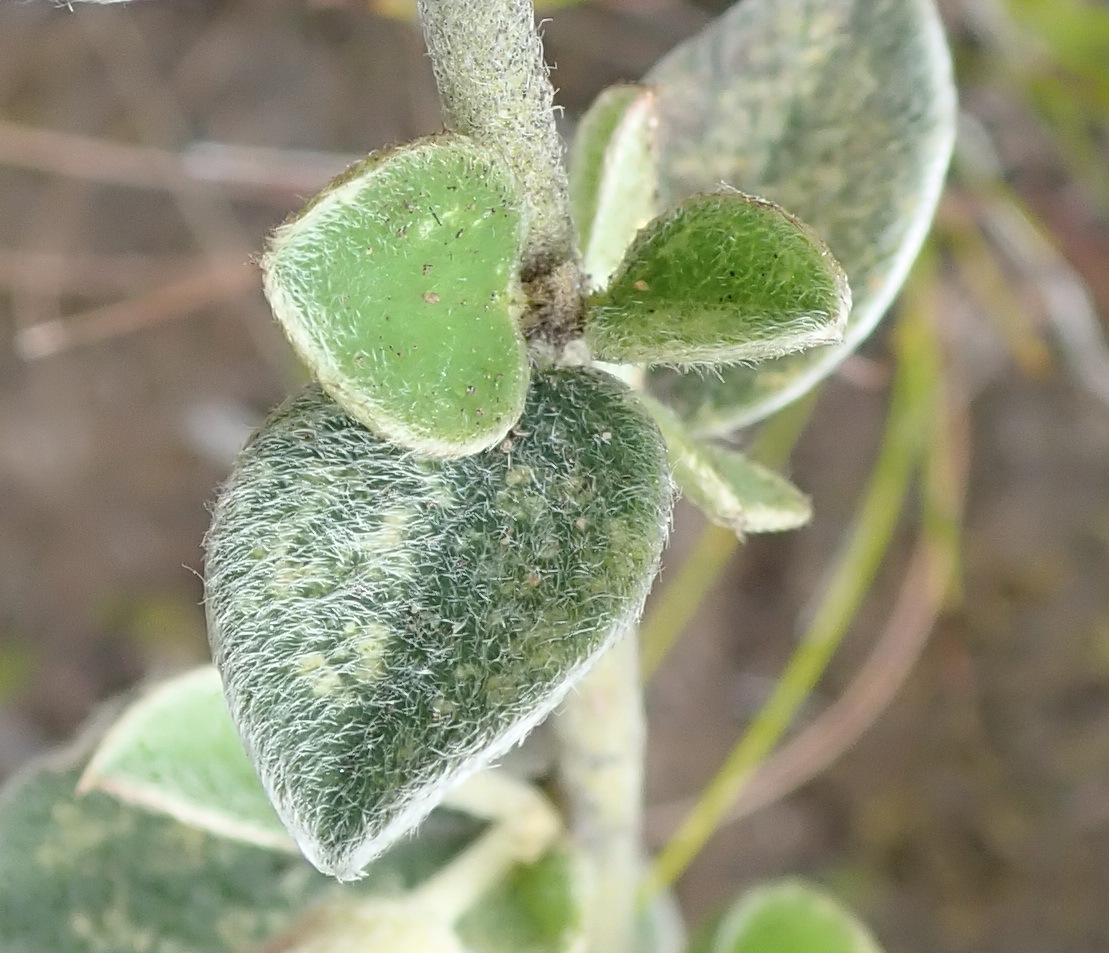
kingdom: Plantae
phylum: Tracheophyta
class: Magnoliopsida
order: Fabales
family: Fabaceae
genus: Podalyria
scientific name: Podalyria burchellii
